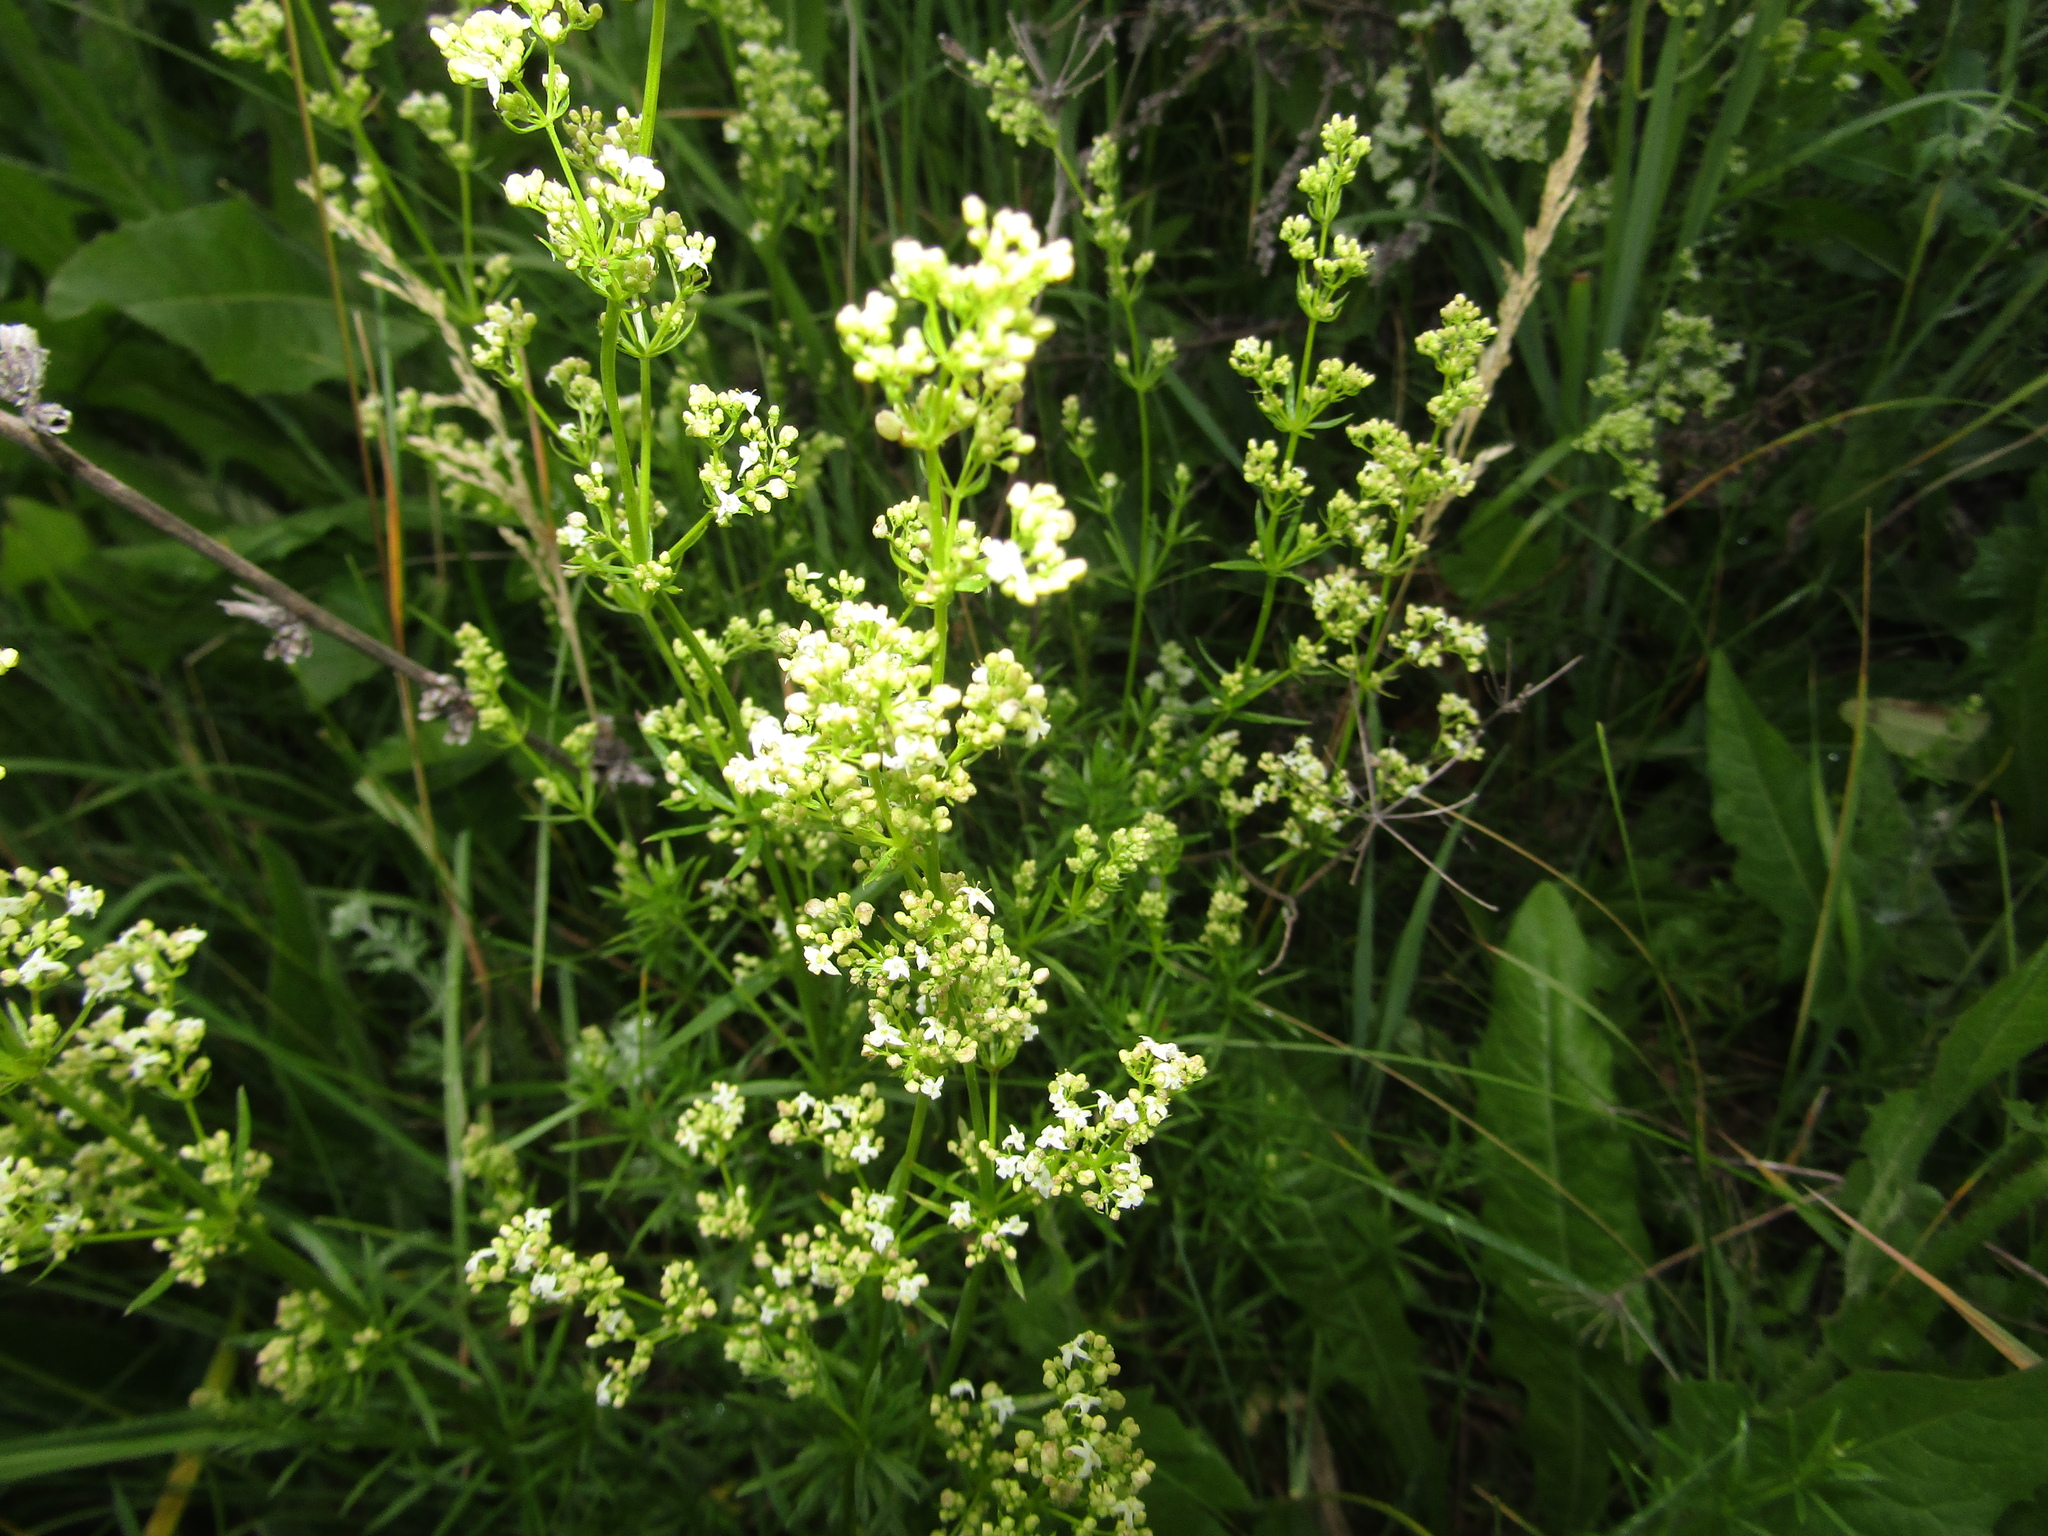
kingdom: Plantae
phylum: Tracheophyta
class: Magnoliopsida
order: Gentianales
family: Rubiaceae
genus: Galium
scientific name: Galium mollugo
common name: Hedge bedstraw
